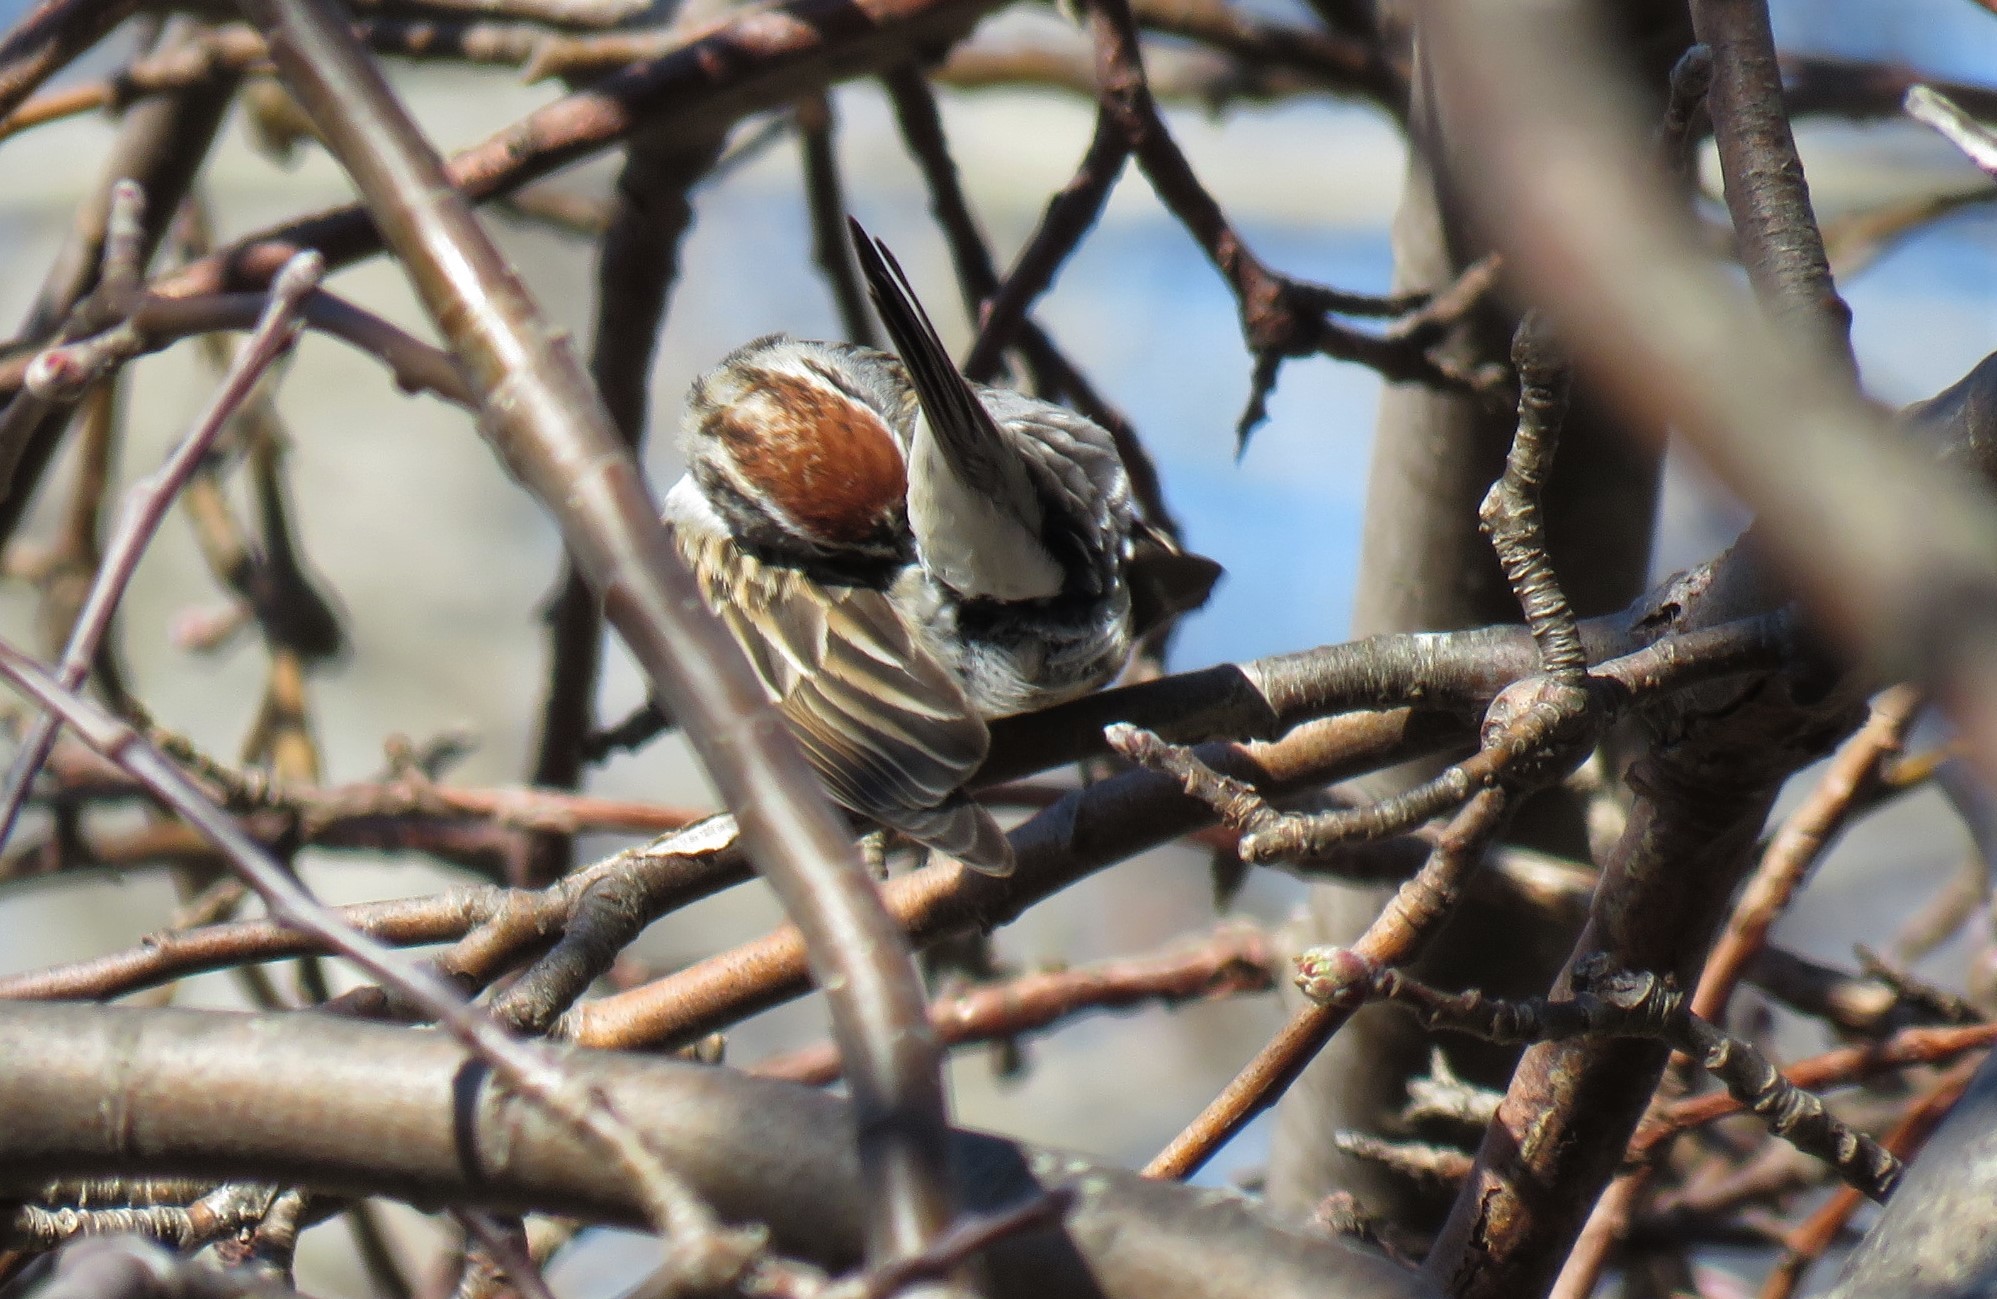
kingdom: Animalia
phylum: Chordata
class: Aves
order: Passeriformes
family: Passerellidae
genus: Spizella
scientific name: Spizella passerina
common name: Chipping sparrow
